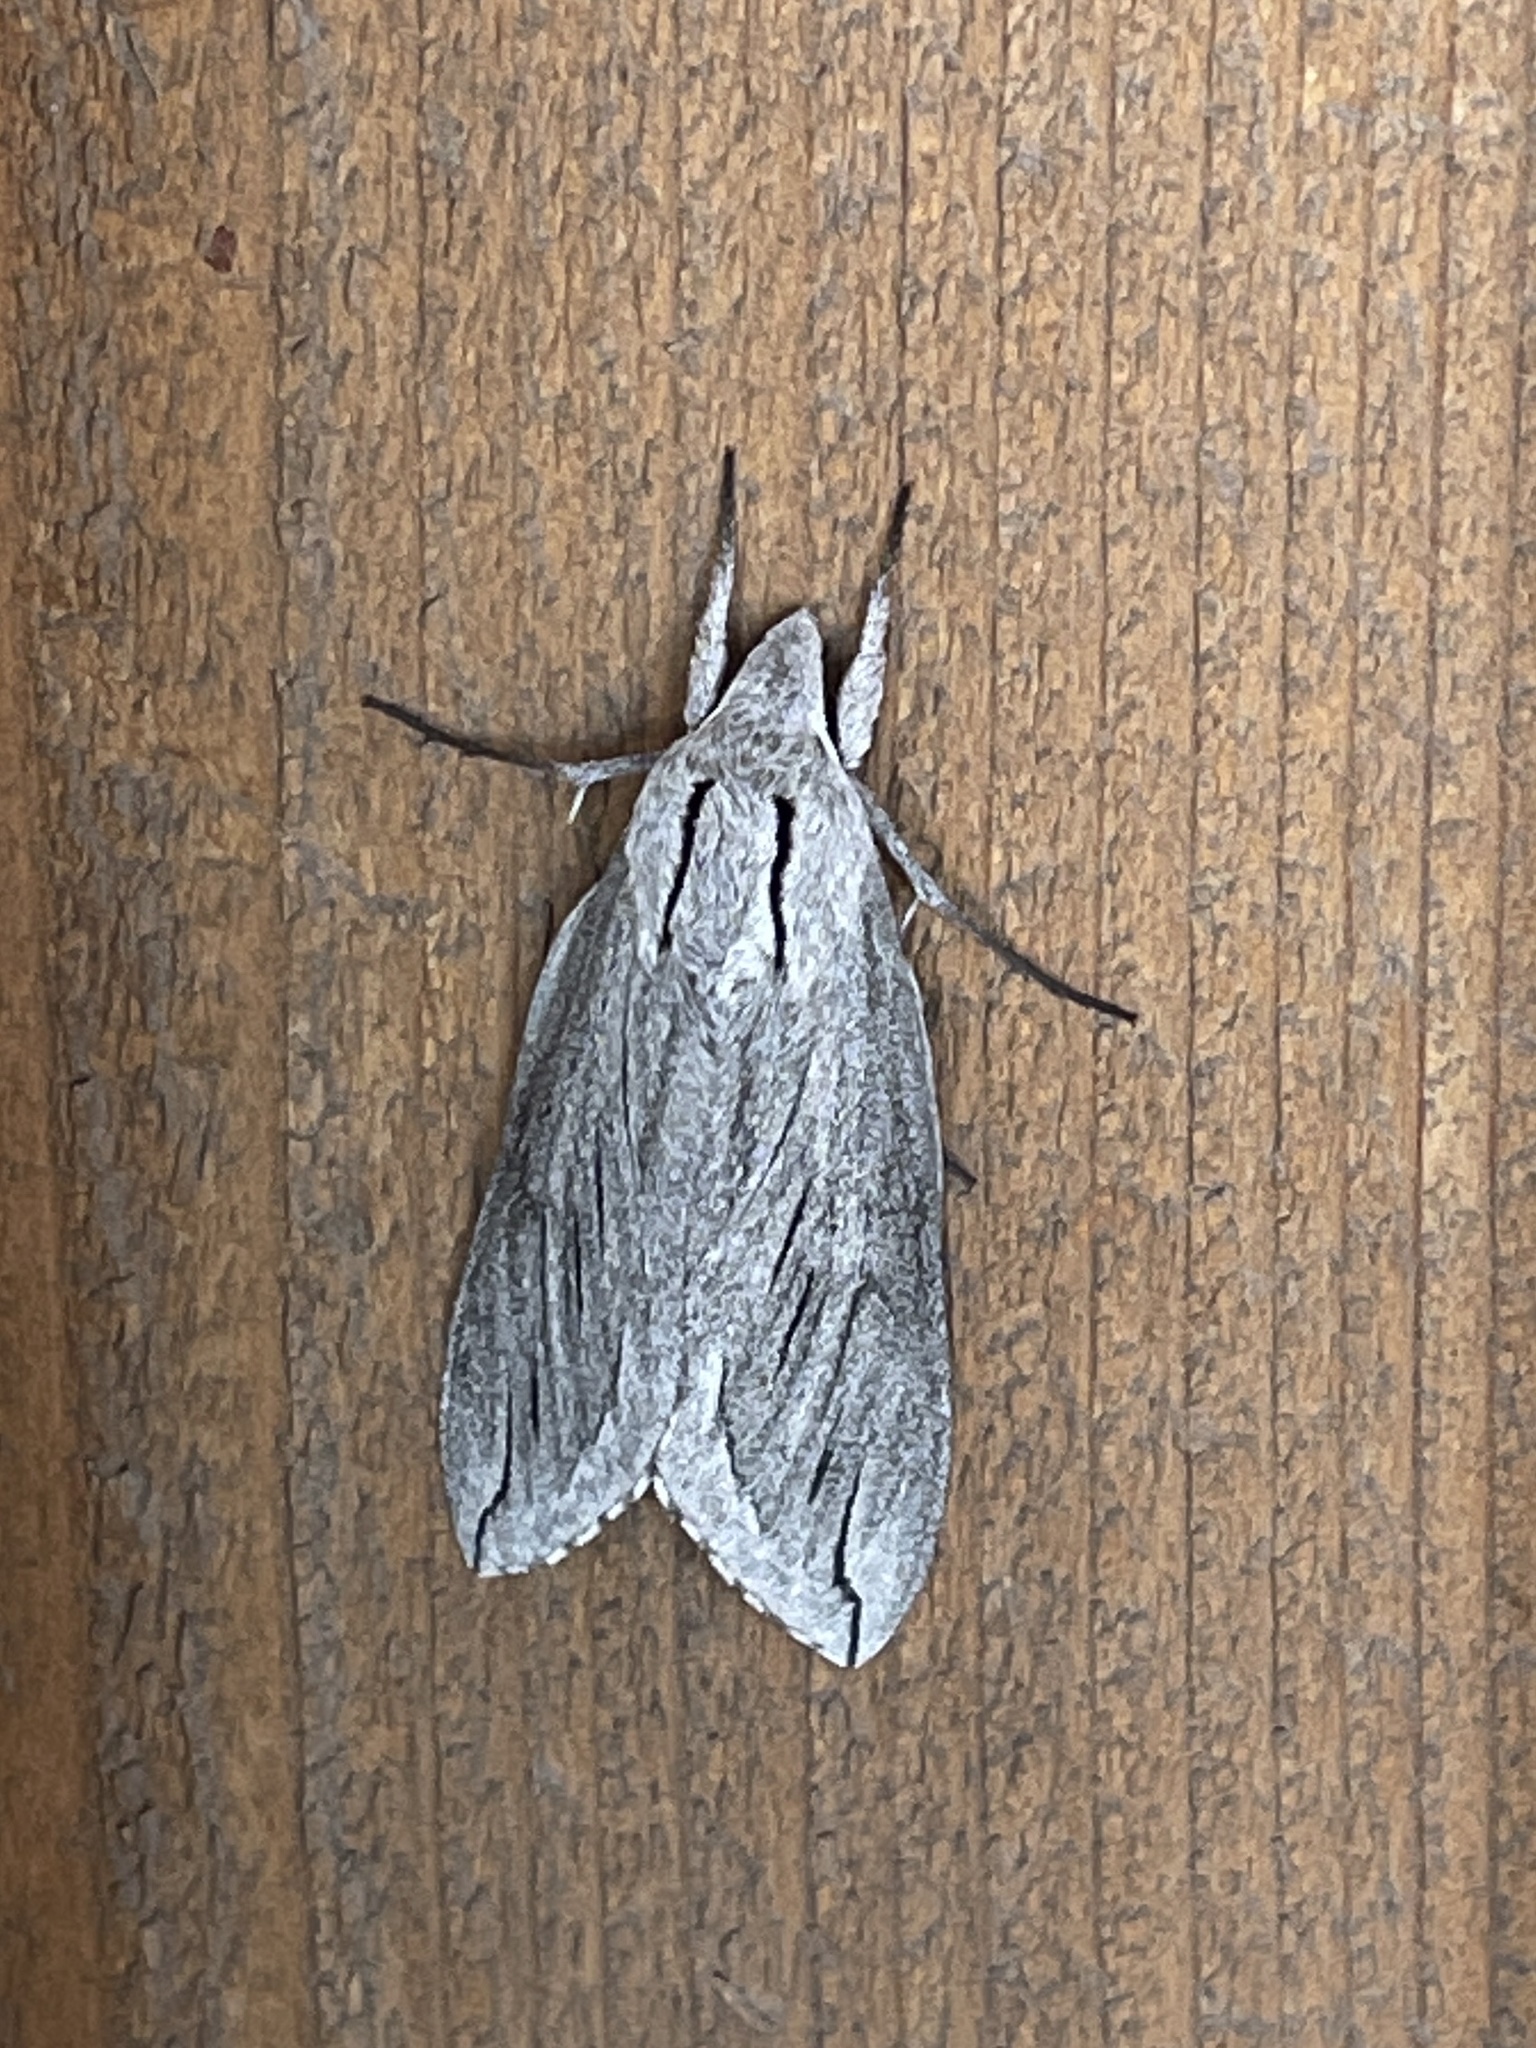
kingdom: Animalia
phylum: Arthropoda
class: Insecta
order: Lepidoptera
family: Sphingidae
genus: Sphinx
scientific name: Sphinx chersis
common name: Great ash sphinx
